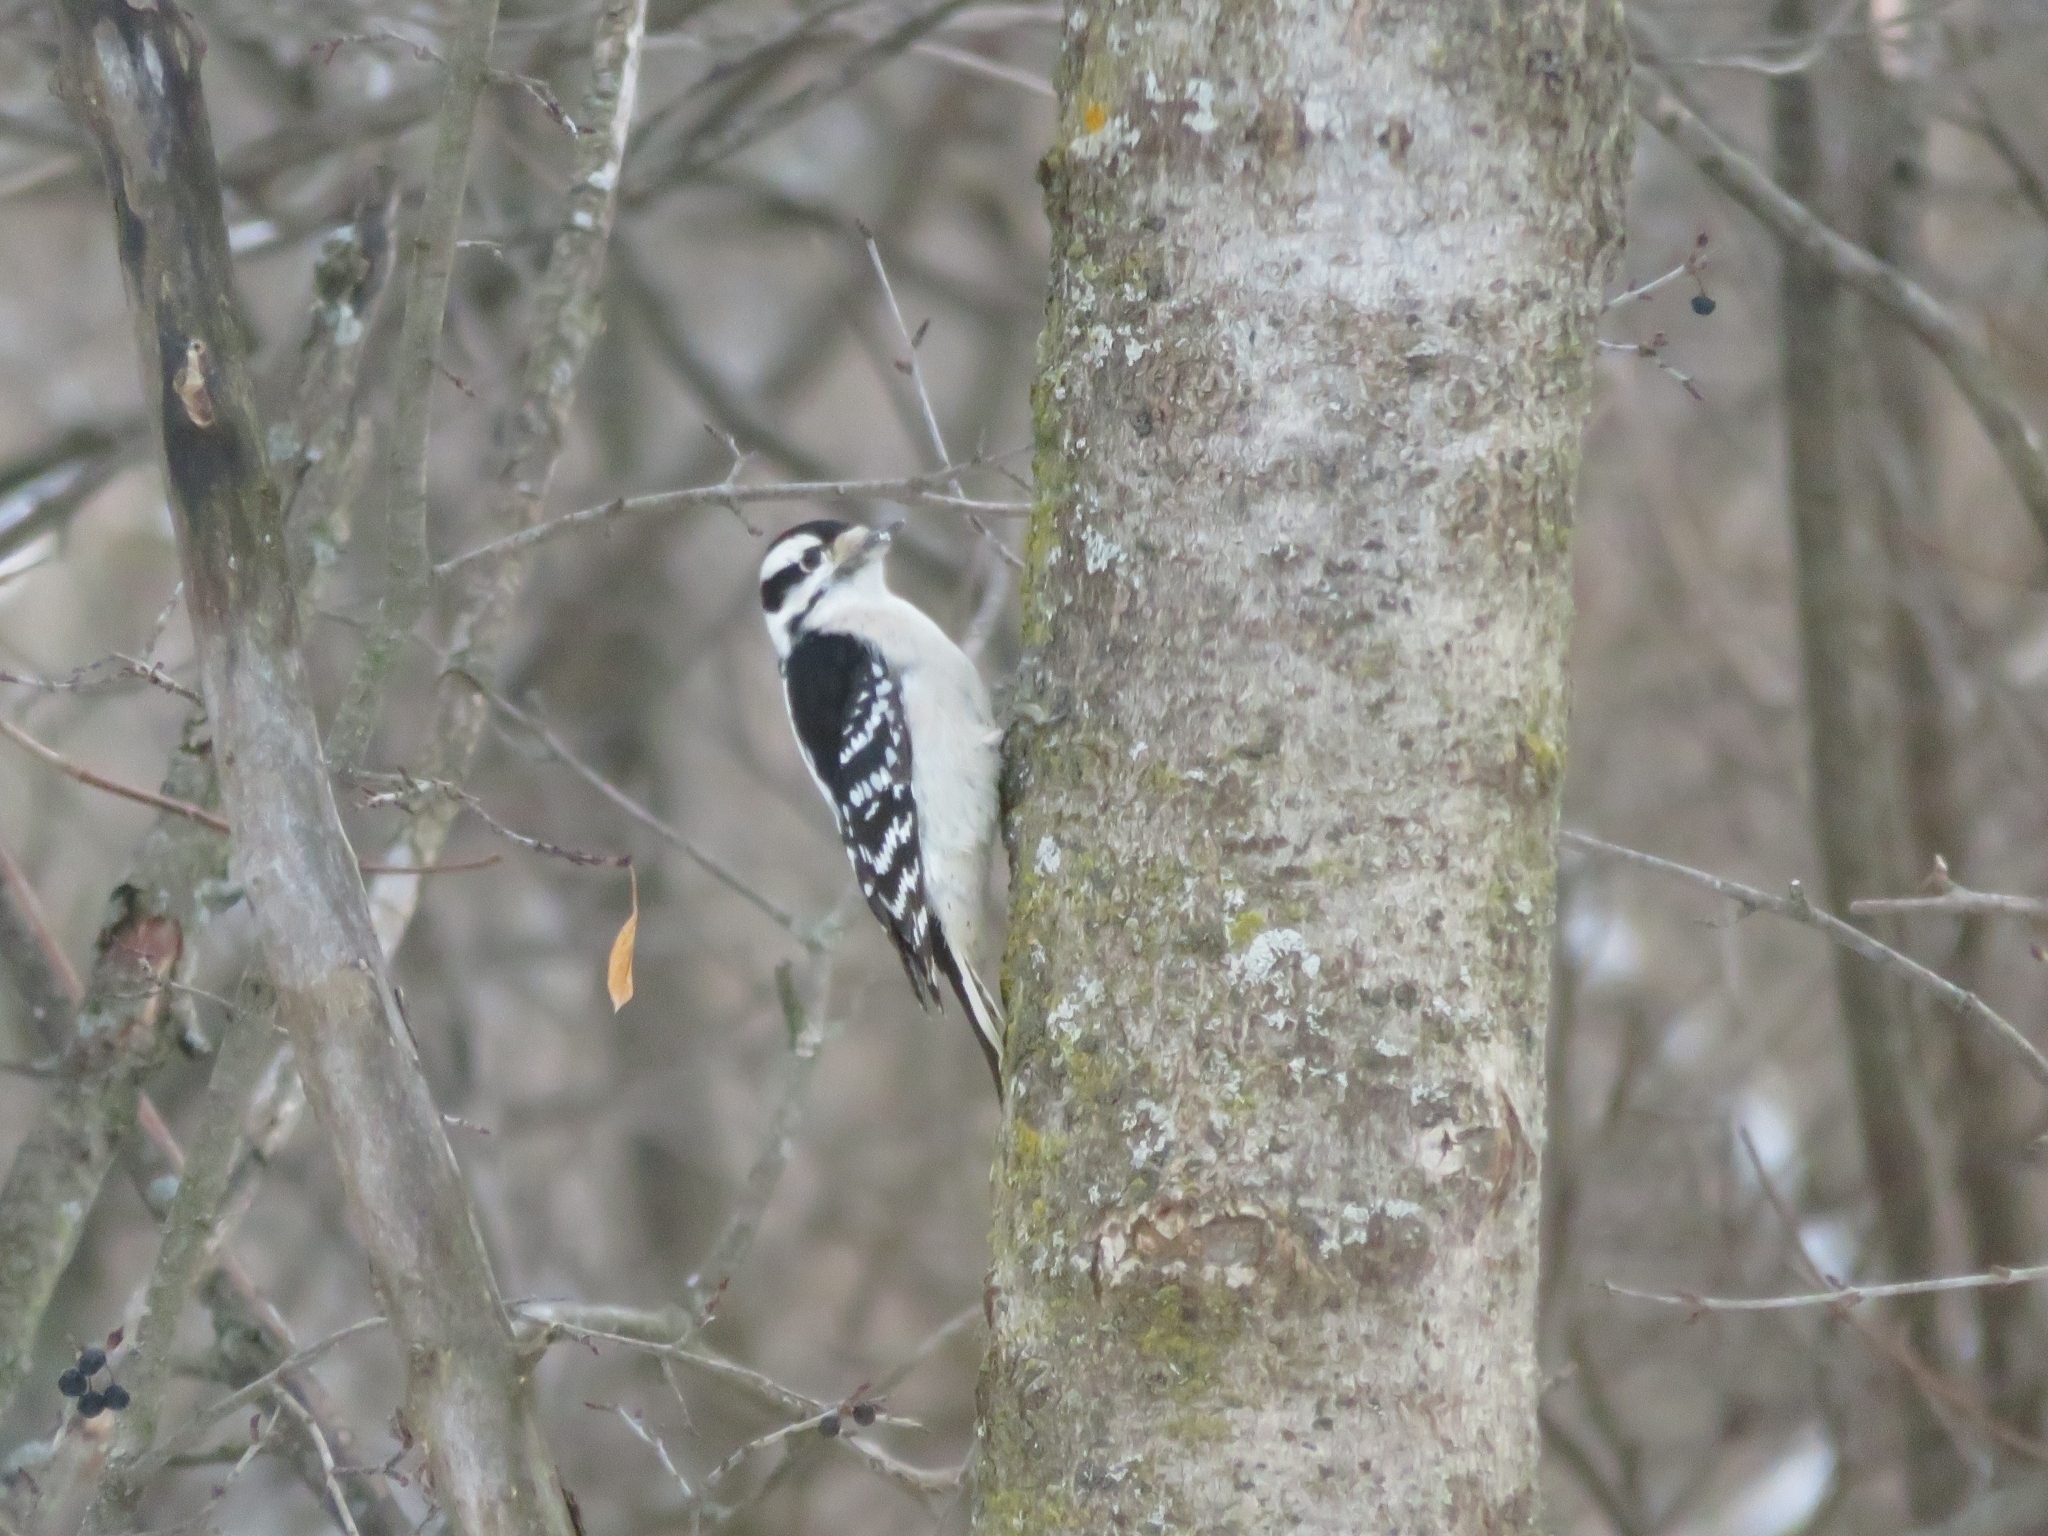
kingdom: Animalia
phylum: Chordata
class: Aves
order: Piciformes
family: Picidae
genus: Dryobates
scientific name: Dryobates pubescens
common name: Downy woodpecker
